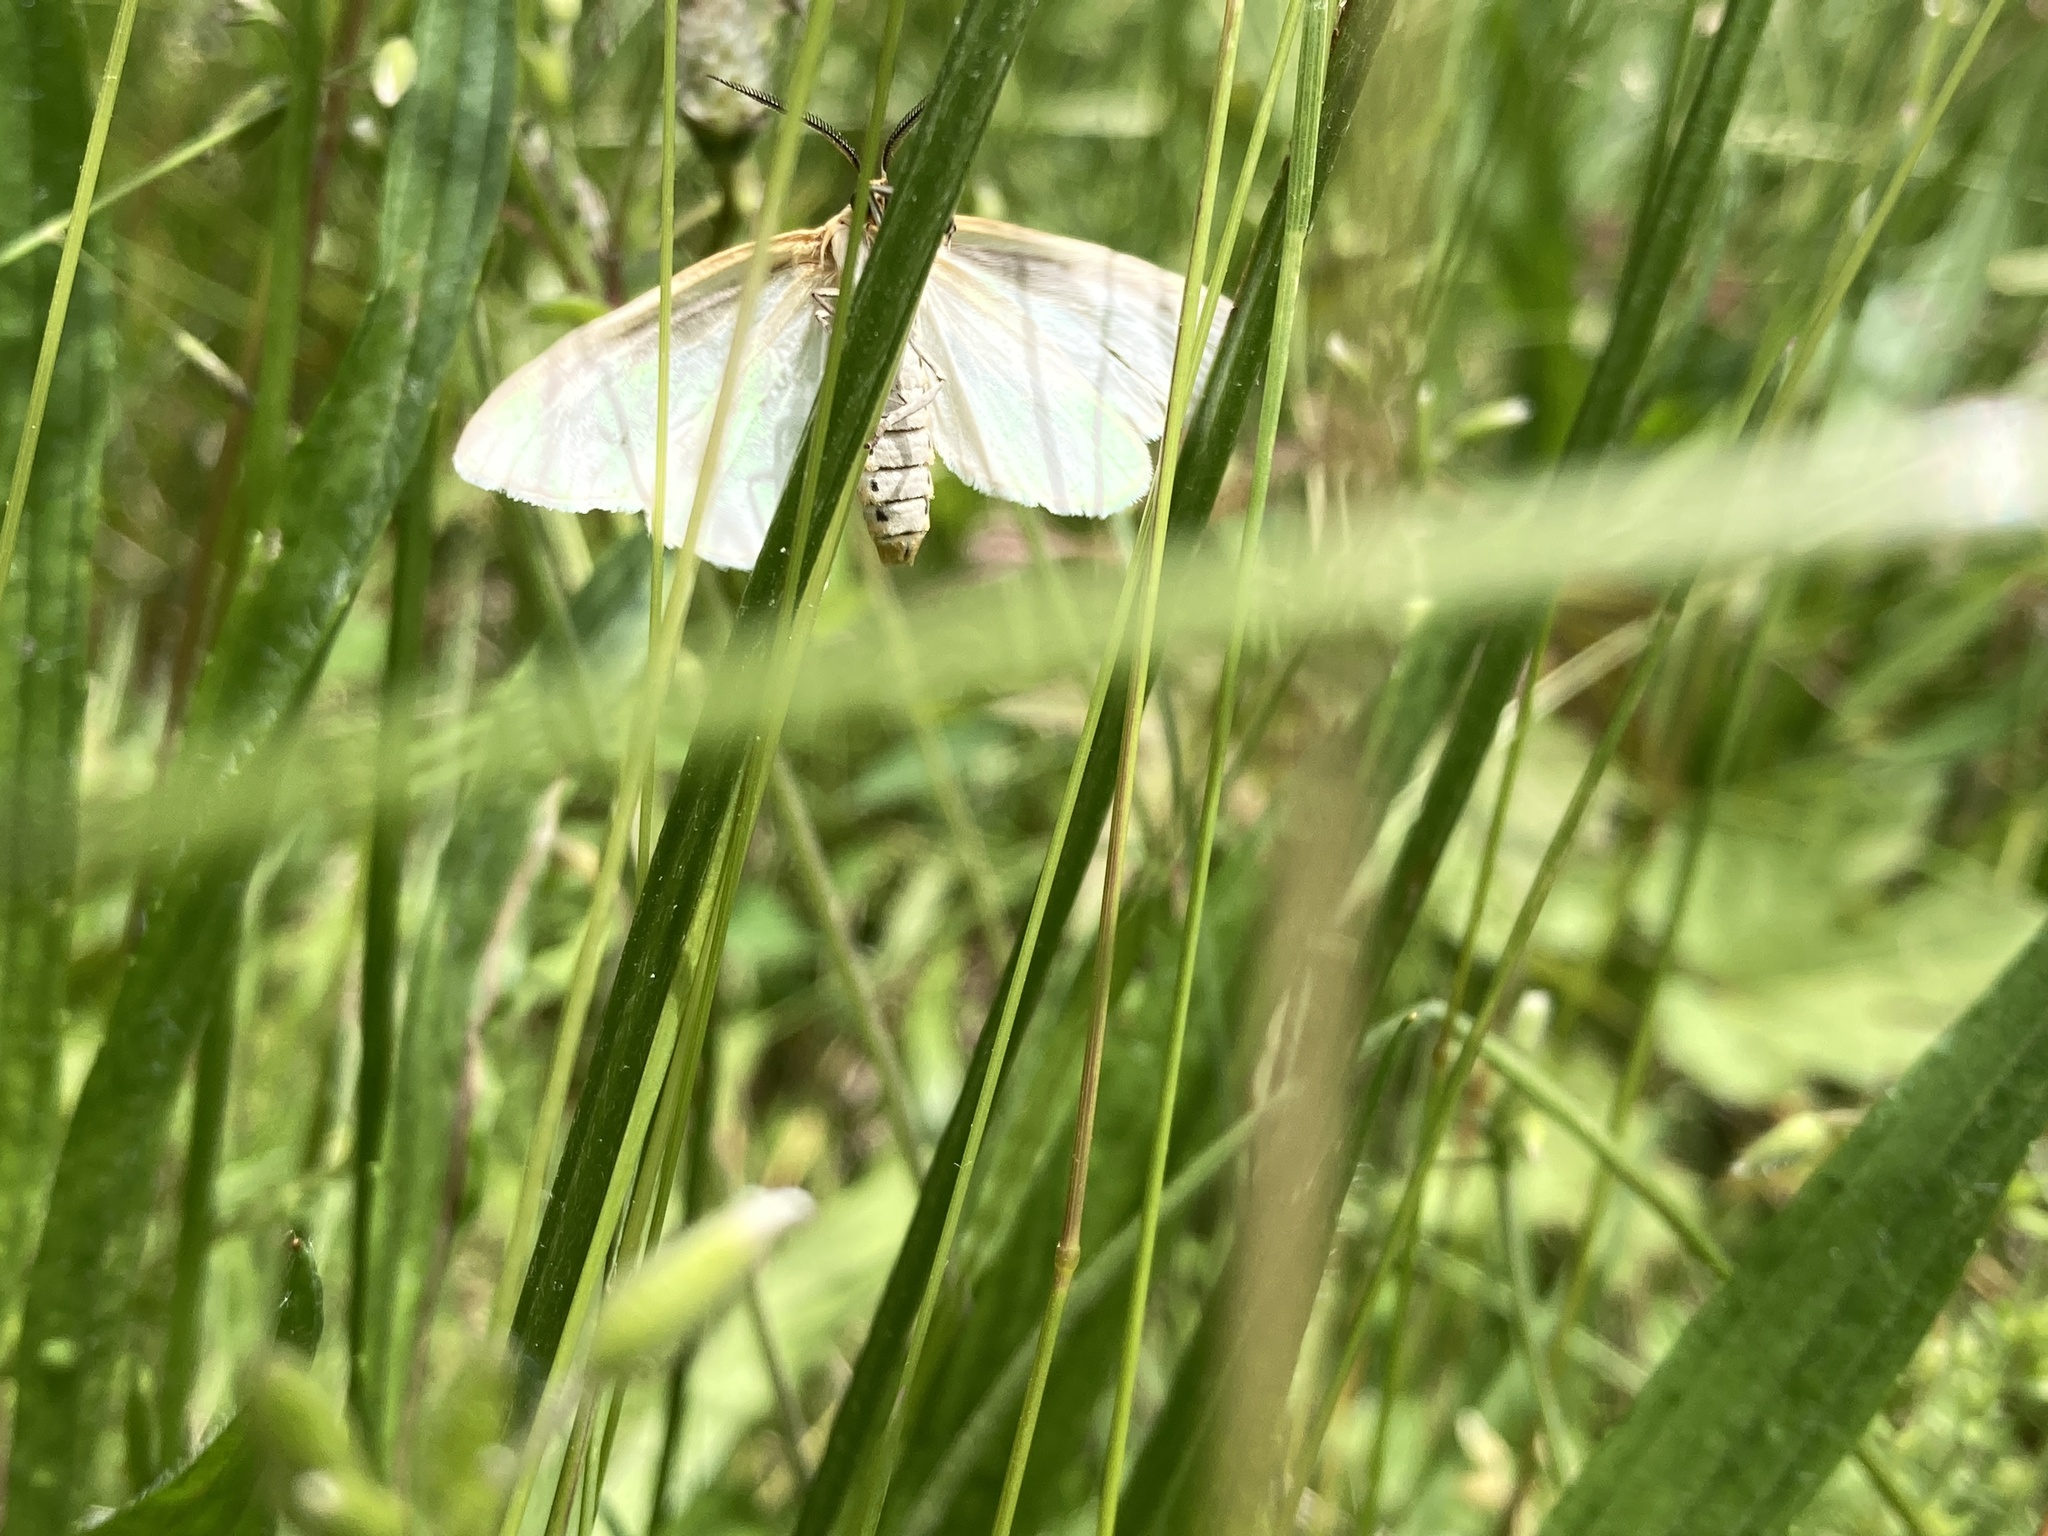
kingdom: Animalia
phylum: Arthropoda
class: Insecta
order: Lepidoptera
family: Erebidae
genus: Cycnia
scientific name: Cycnia tenera
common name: Delicate cycnia moth
